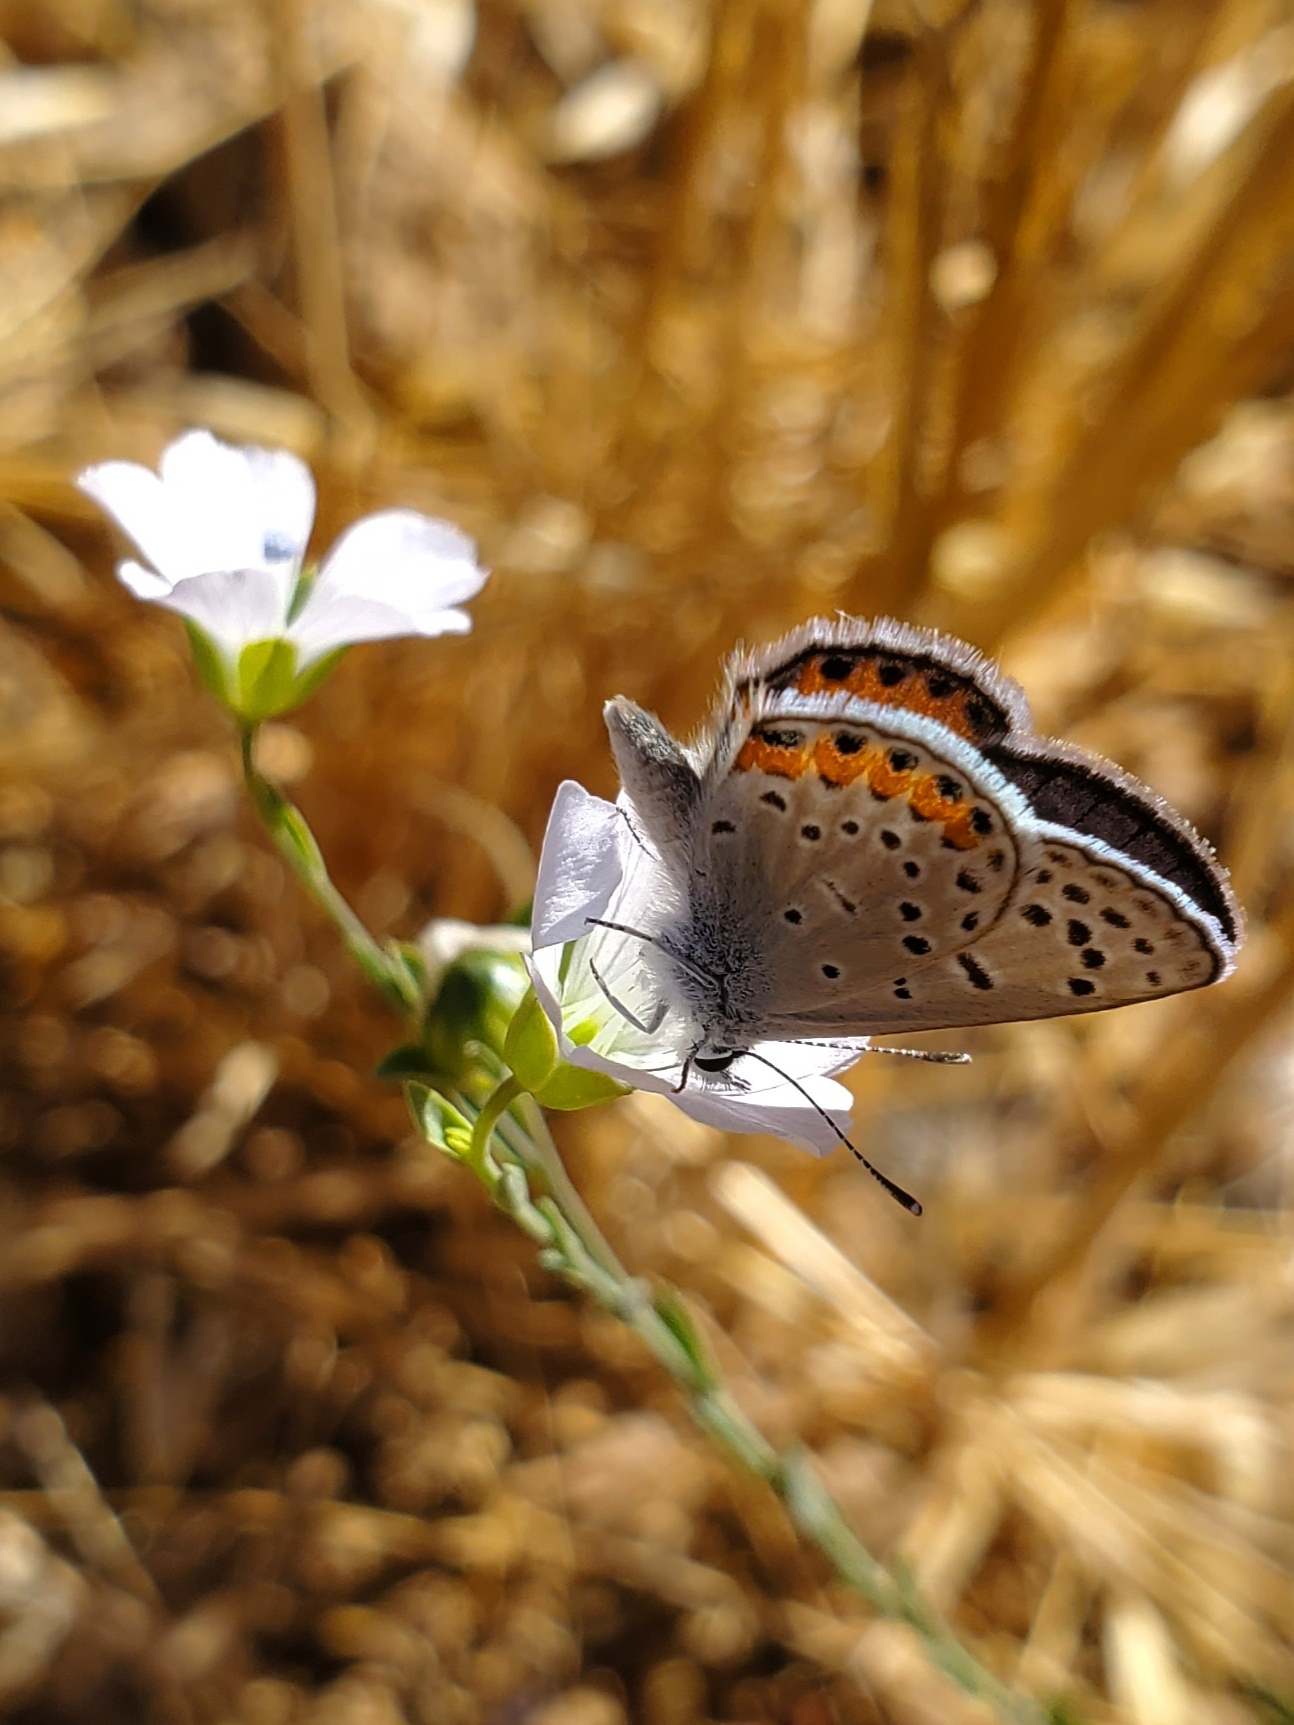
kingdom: Animalia
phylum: Arthropoda
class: Insecta
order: Lepidoptera
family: Lycaenidae
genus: Icaricia
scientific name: Icaricia acmon
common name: Acmon blue
